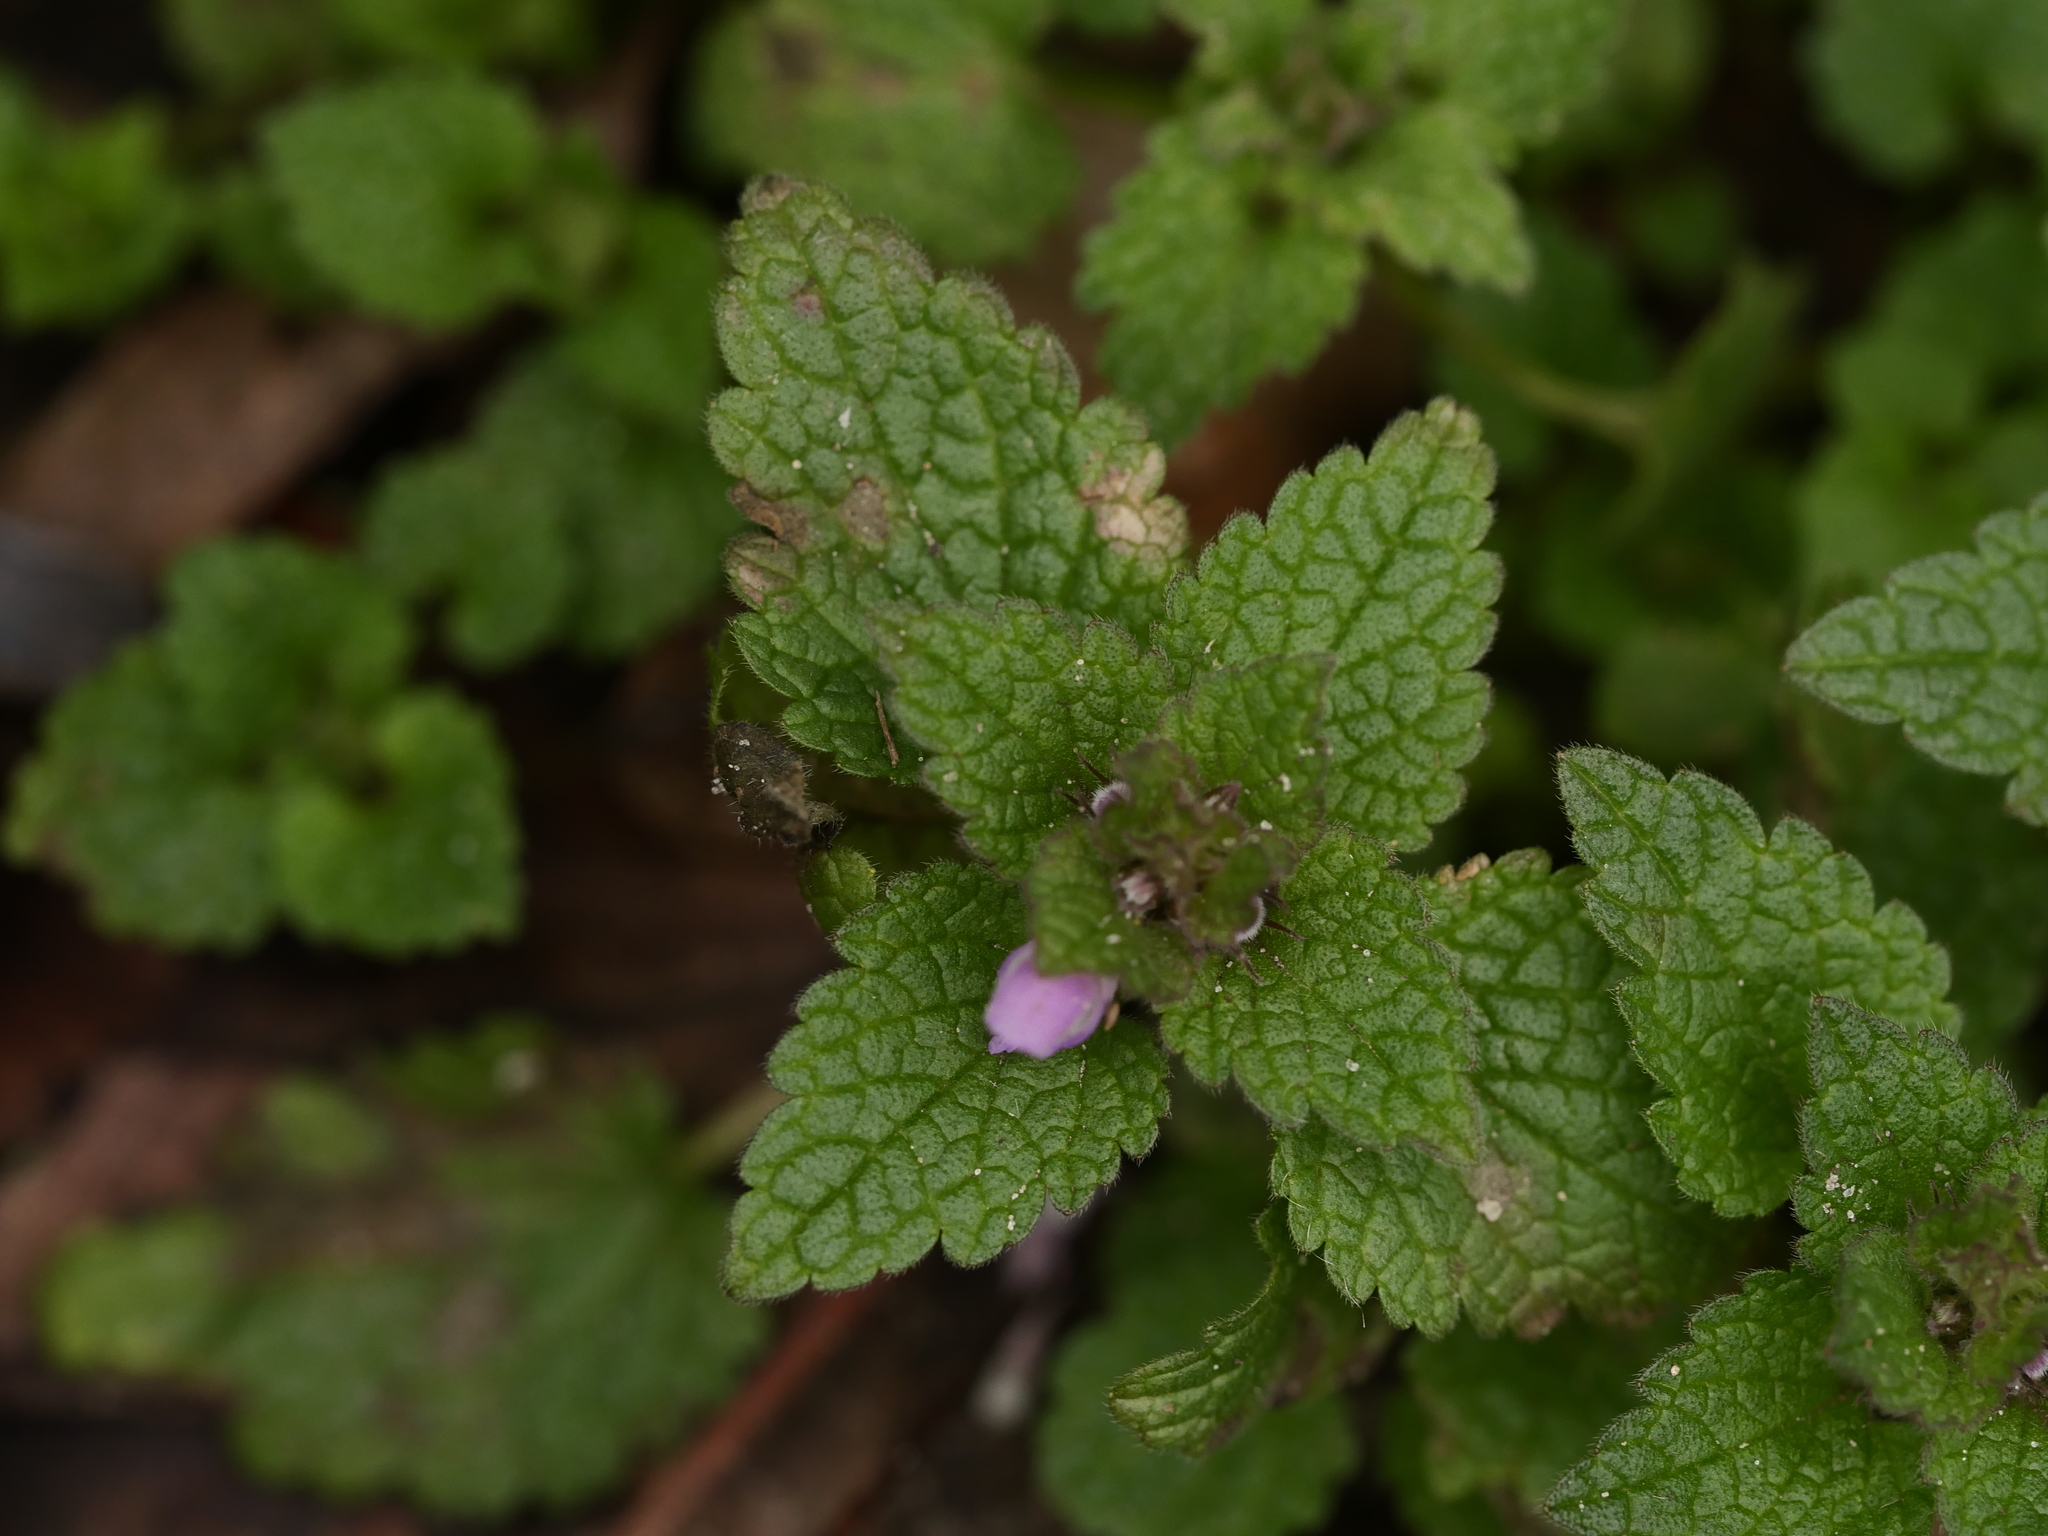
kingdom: Plantae
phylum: Tracheophyta
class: Magnoliopsida
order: Lamiales
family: Lamiaceae
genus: Lamium
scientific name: Lamium purpureum
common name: Red dead-nettle
